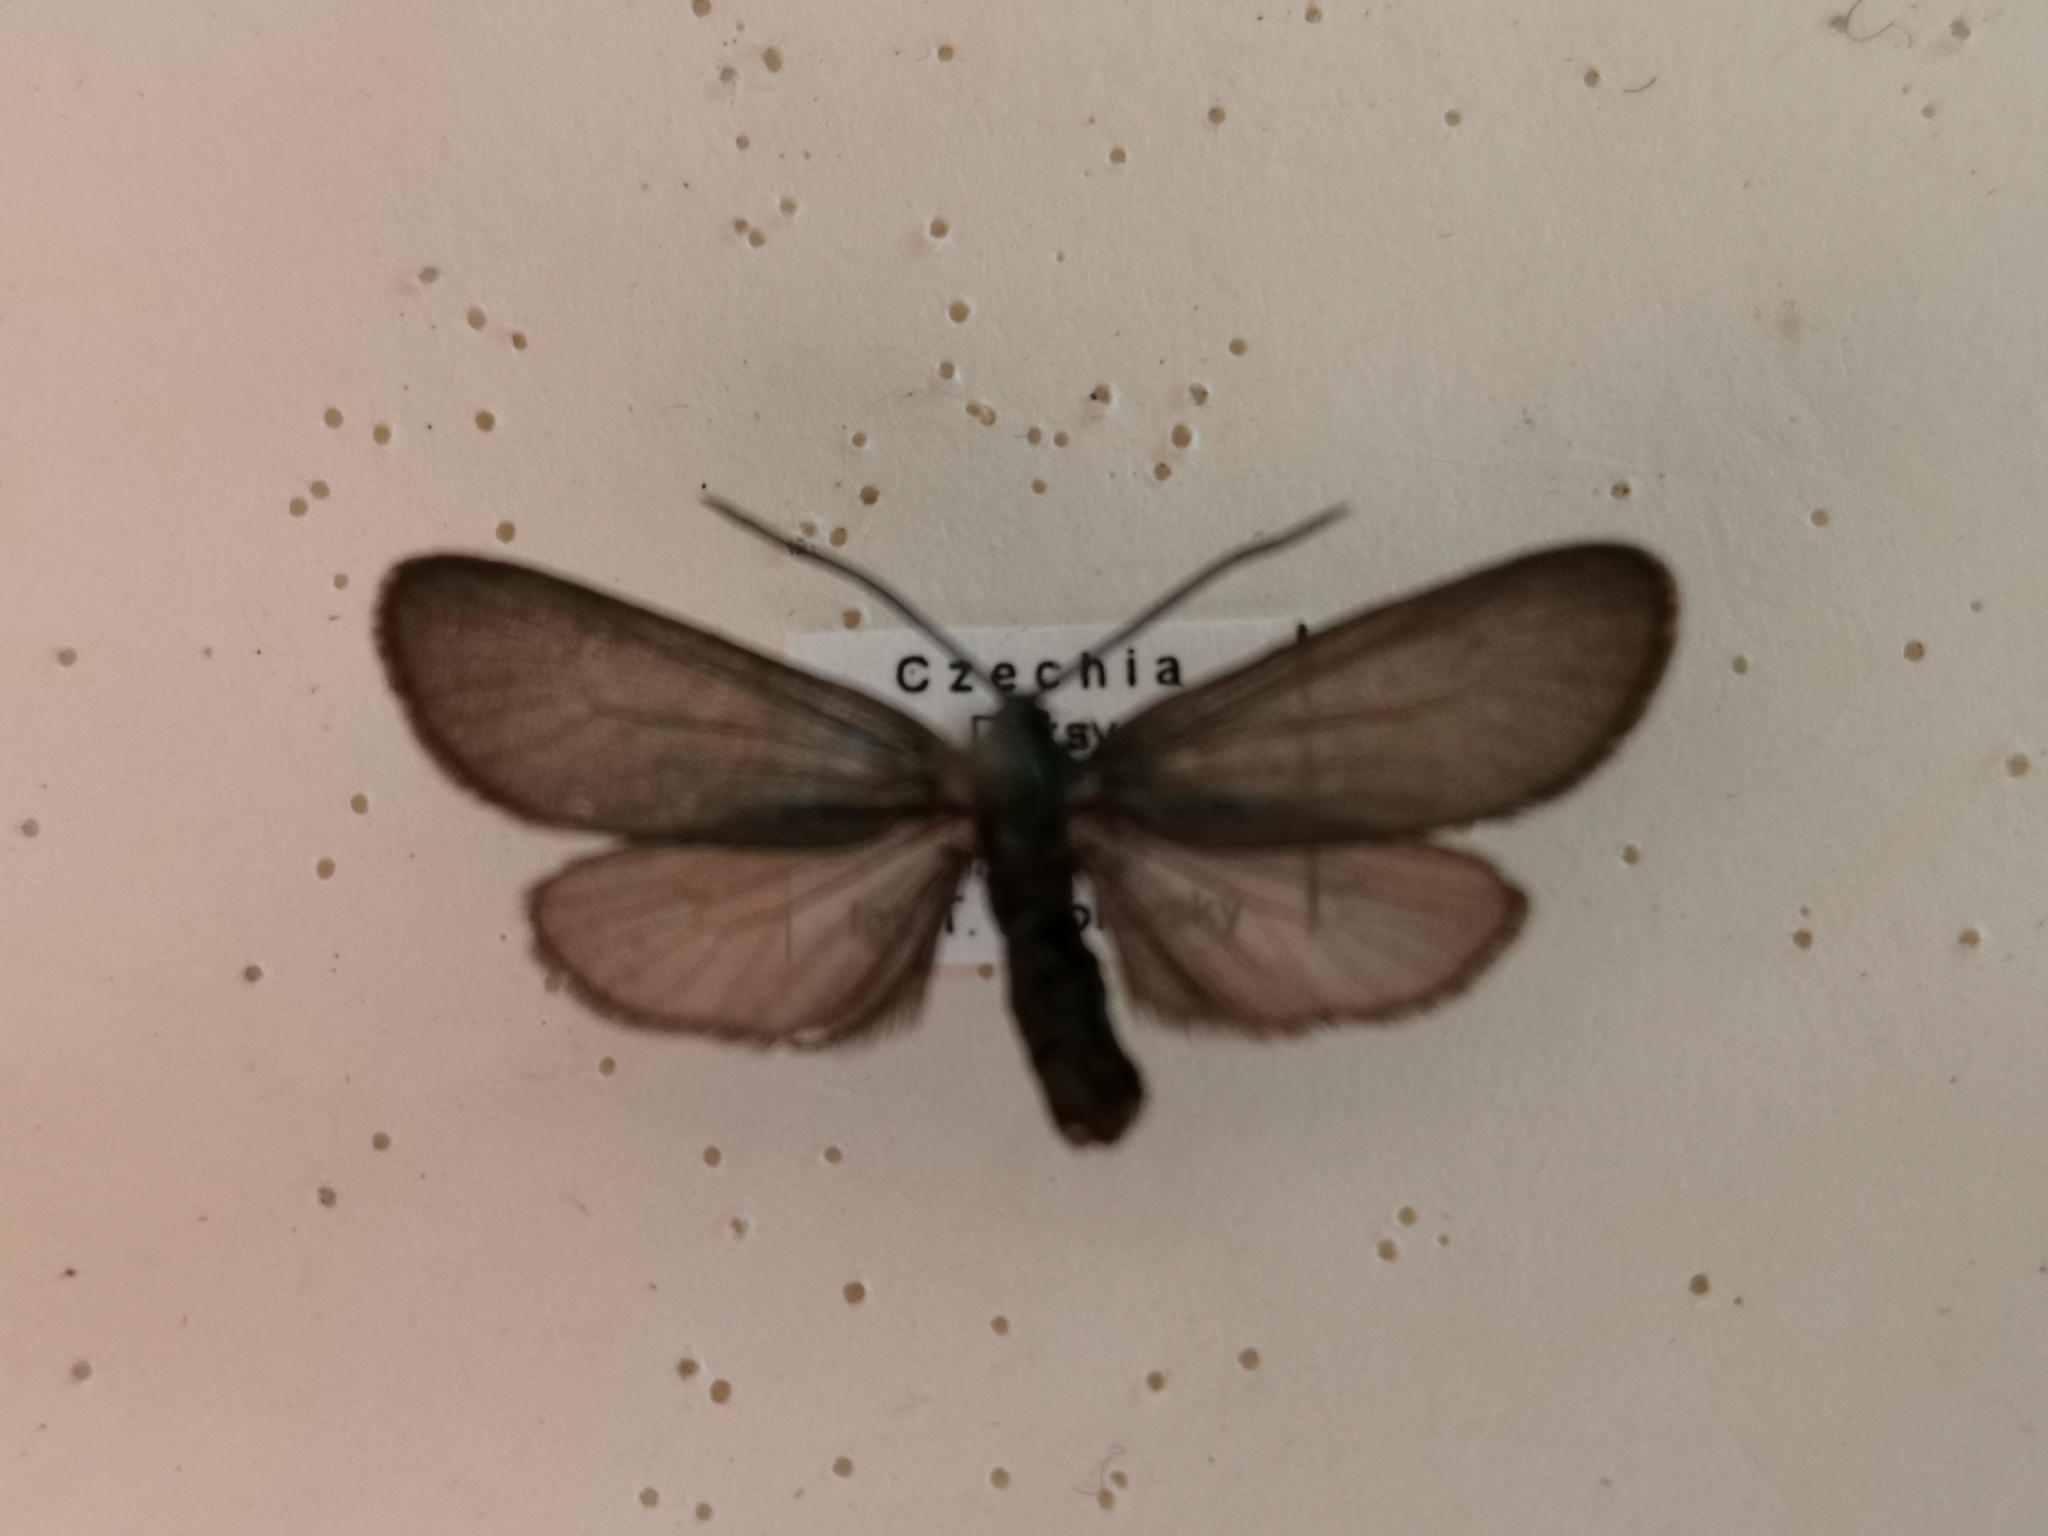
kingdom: Animalia
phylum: Arthropoda
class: Insecta
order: Lepidoptera
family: Zygaenidae
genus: Rhagades
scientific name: Rhagades pruni
